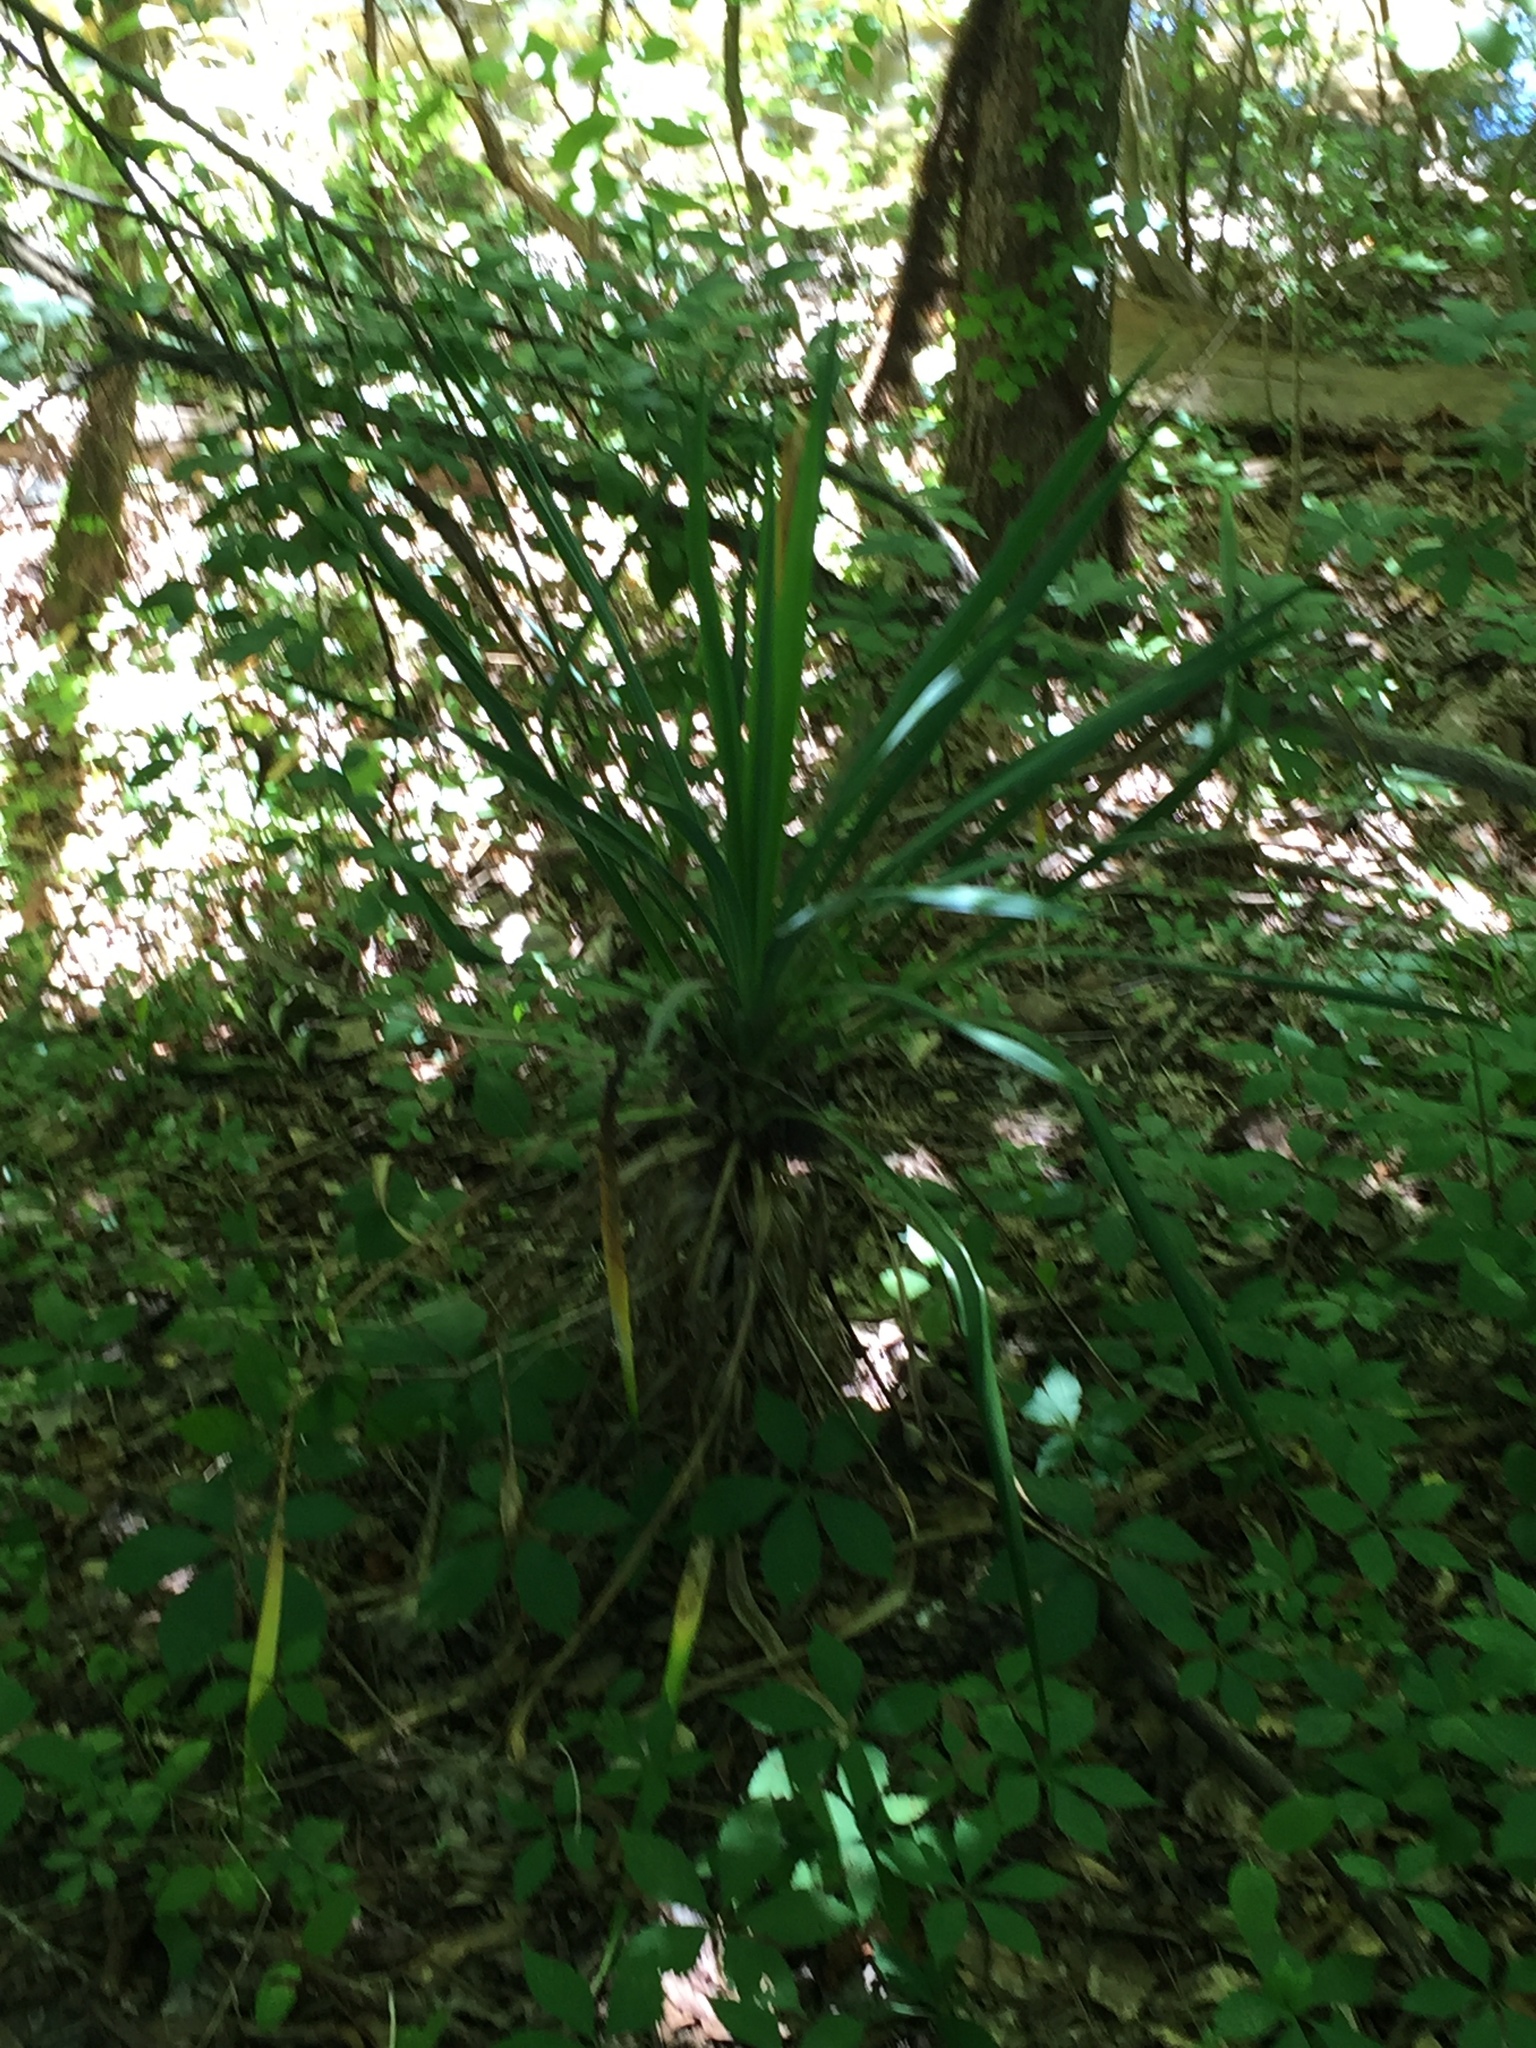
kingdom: Plantae
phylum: Tracheophyta
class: Liliopsida
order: Asparagales
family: Asparagaceae
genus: Yucca
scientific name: Yucca gloriosa
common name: Spanish-dagger
